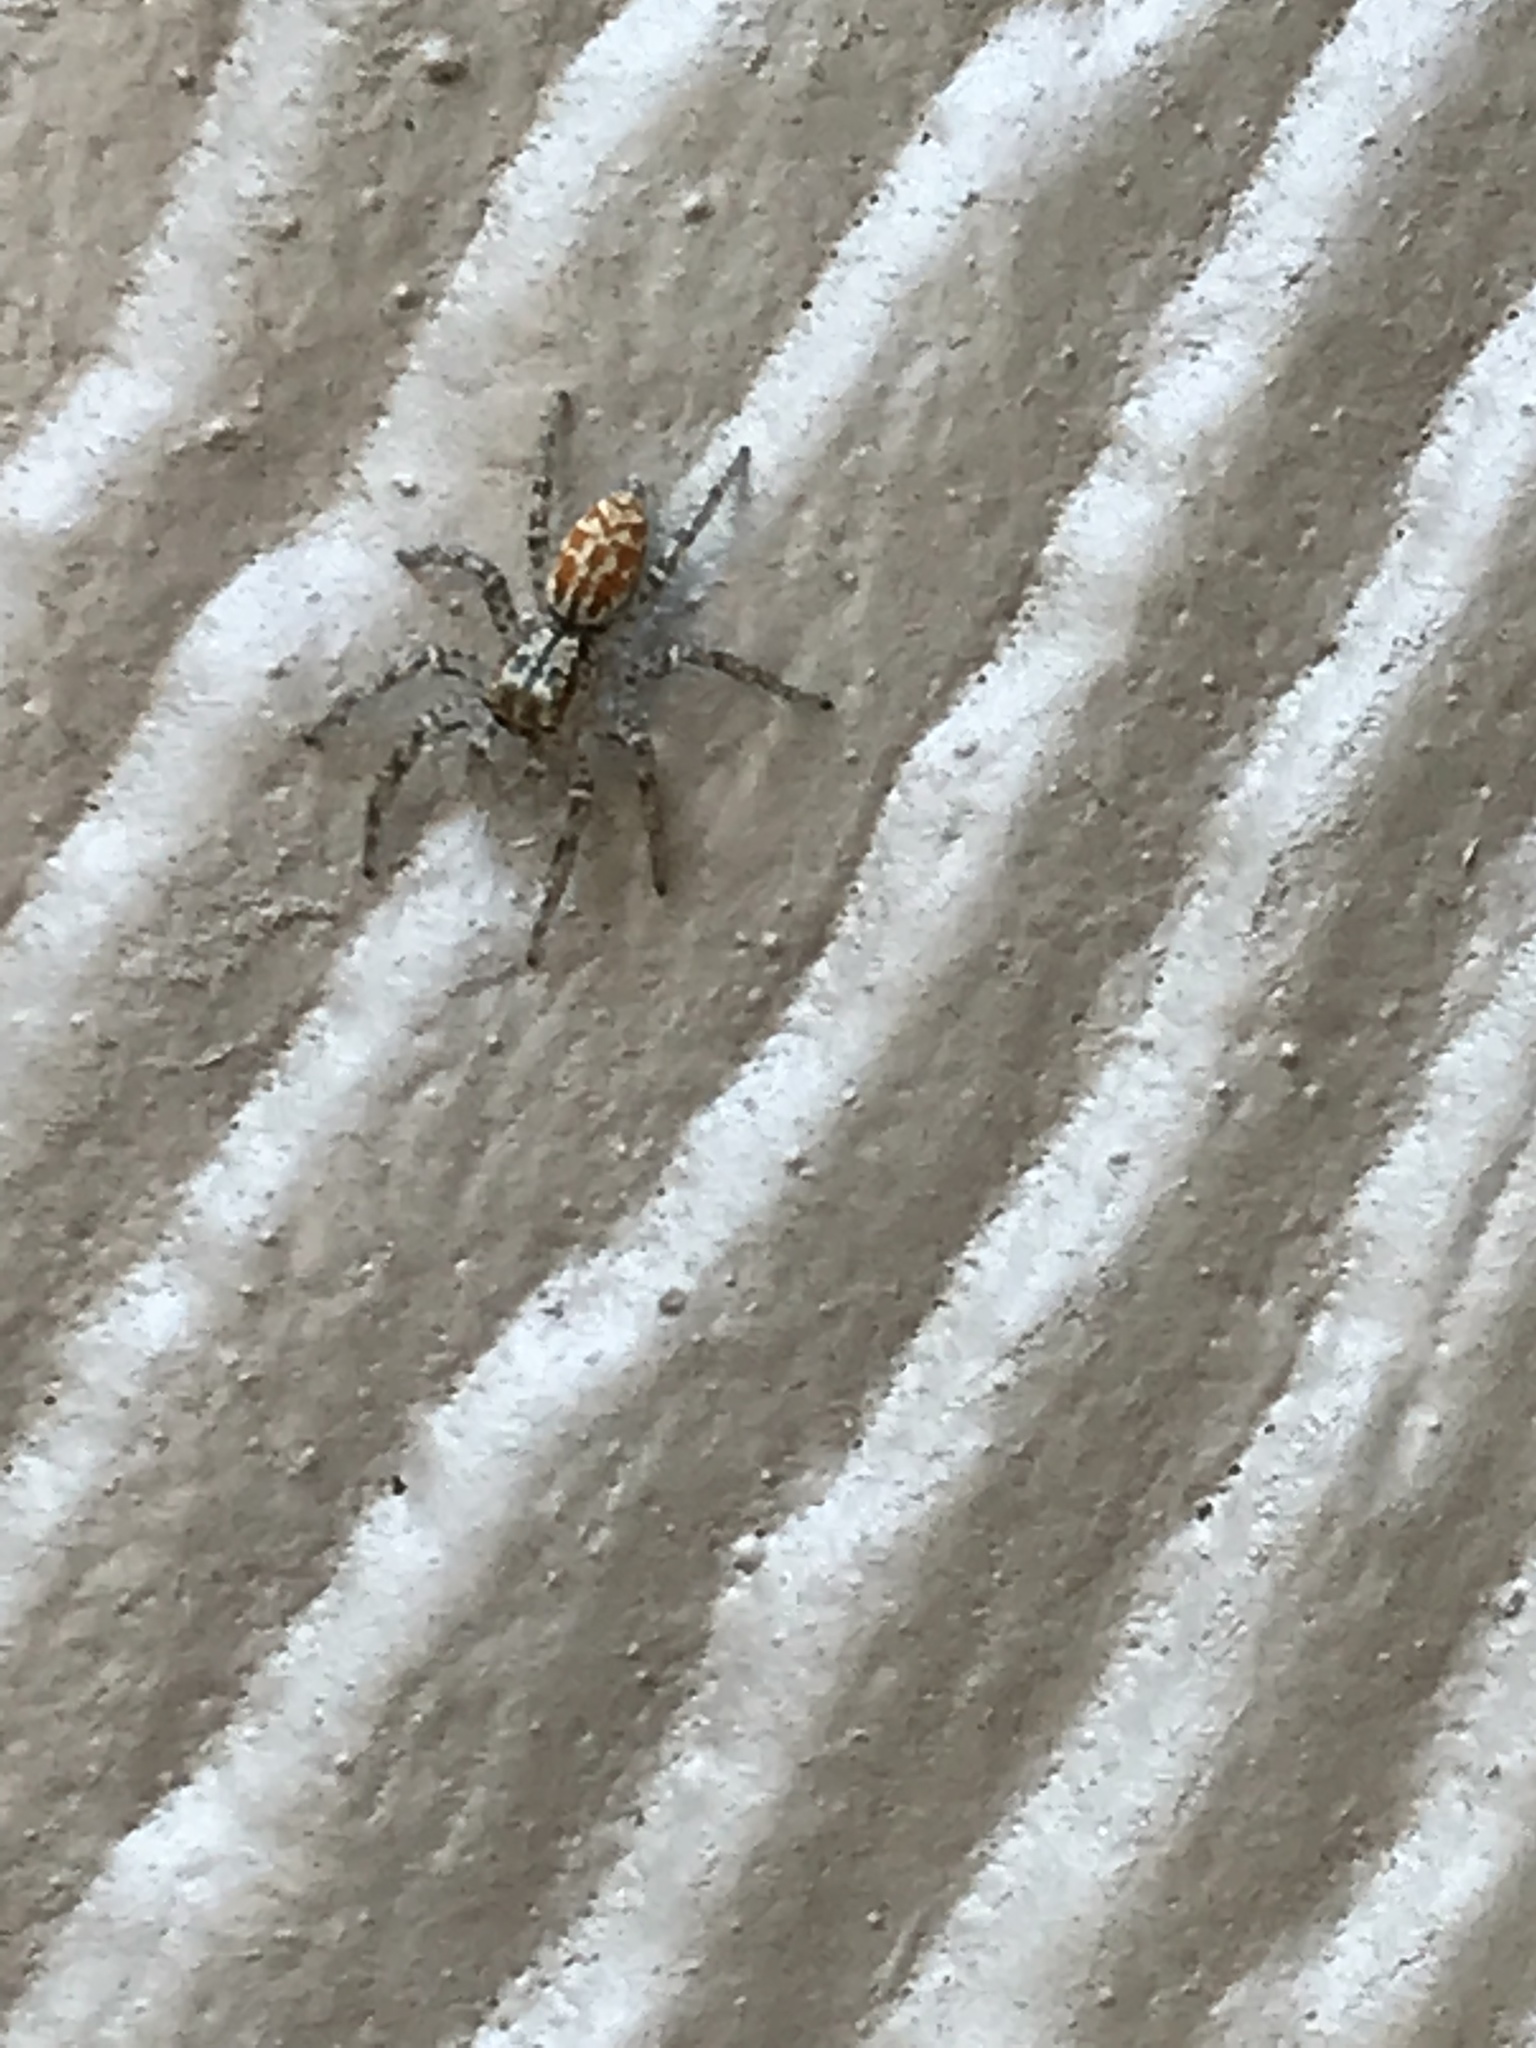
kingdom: Animalia
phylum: Arthropoda
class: Arachnida
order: Araneae
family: Salticidae
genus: Maevia
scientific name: Maevia inclemens
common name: Dimorphic jumper
